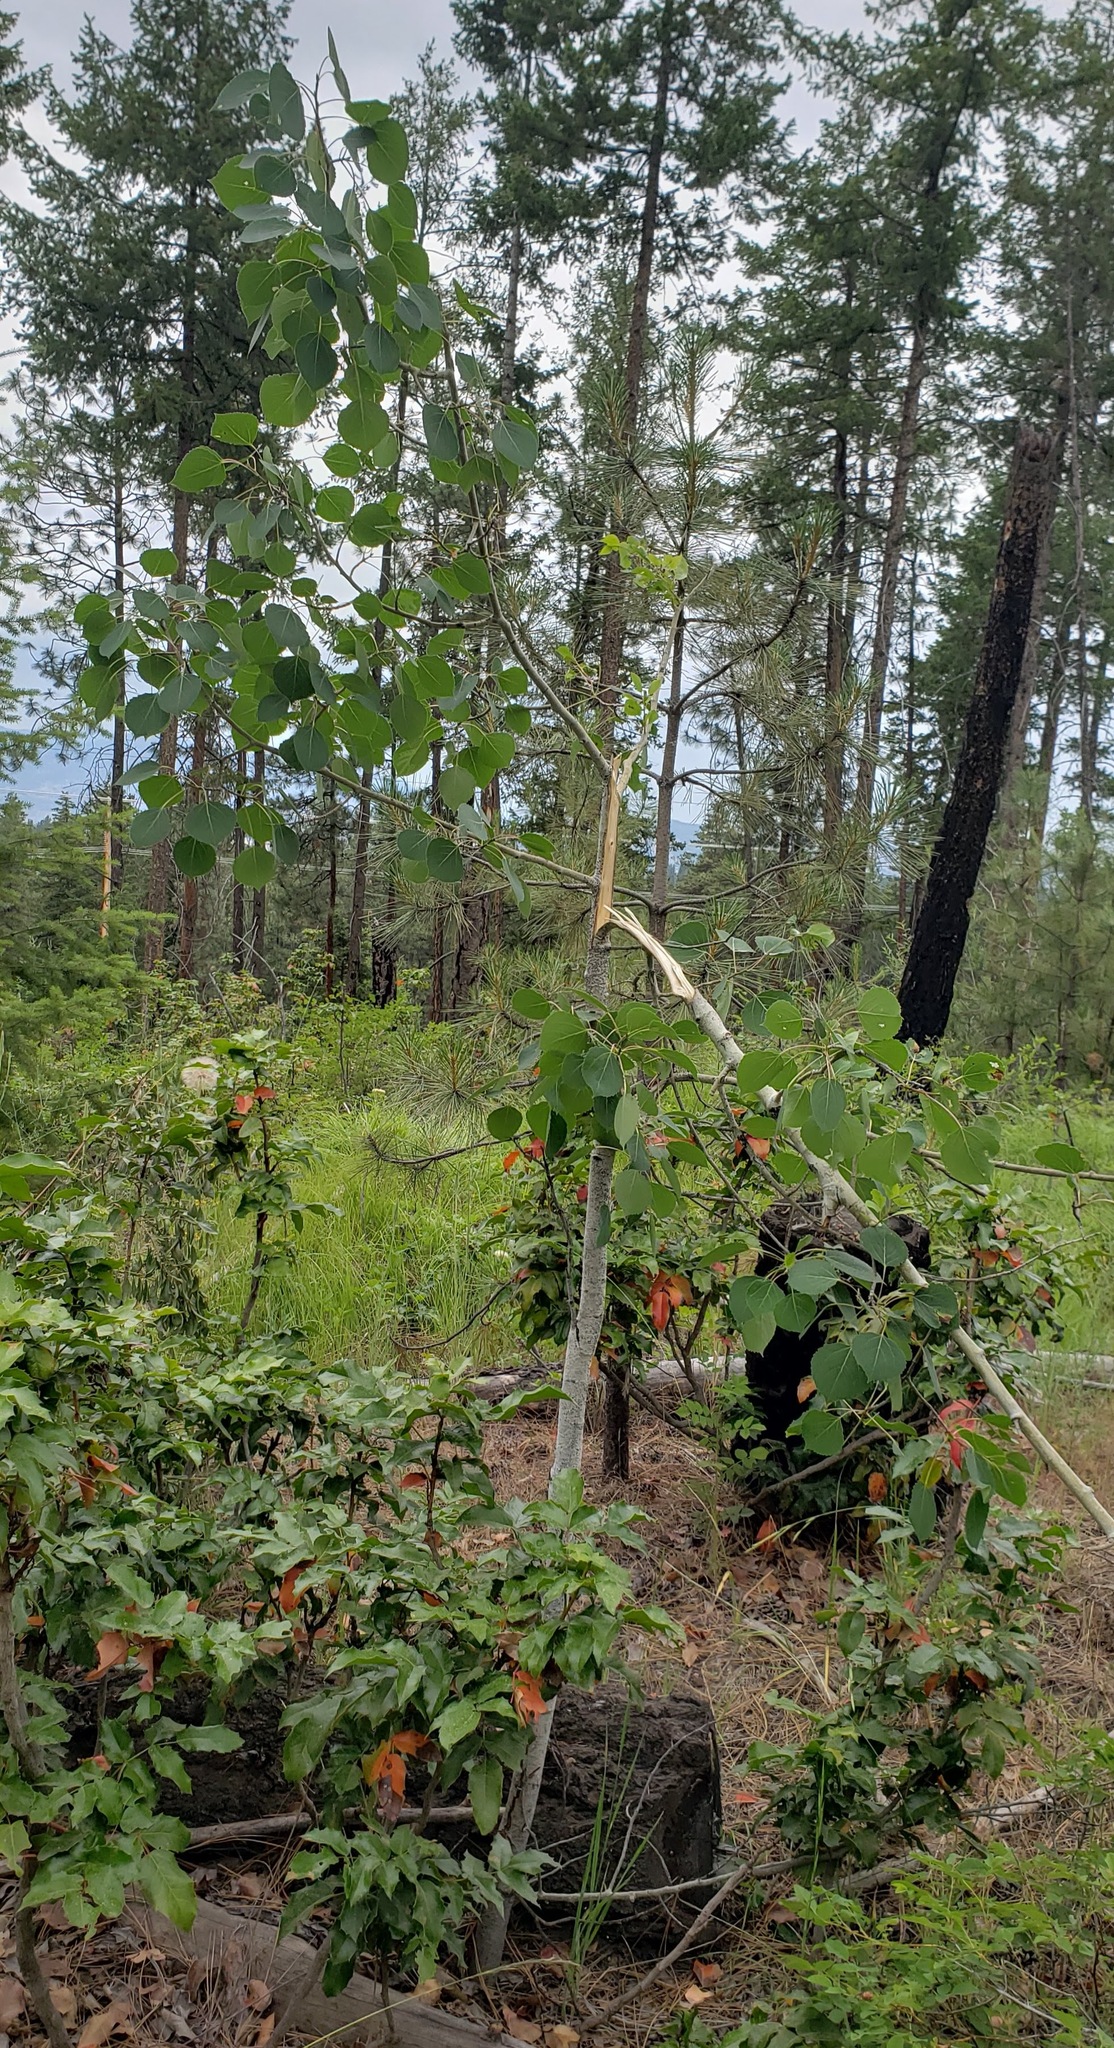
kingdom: Plantae
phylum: Tracheophyta
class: Magnoliopsida
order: Malpighiales
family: Salicaceae
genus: Populus
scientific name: Populus tremuloides
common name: Quaking aspen
